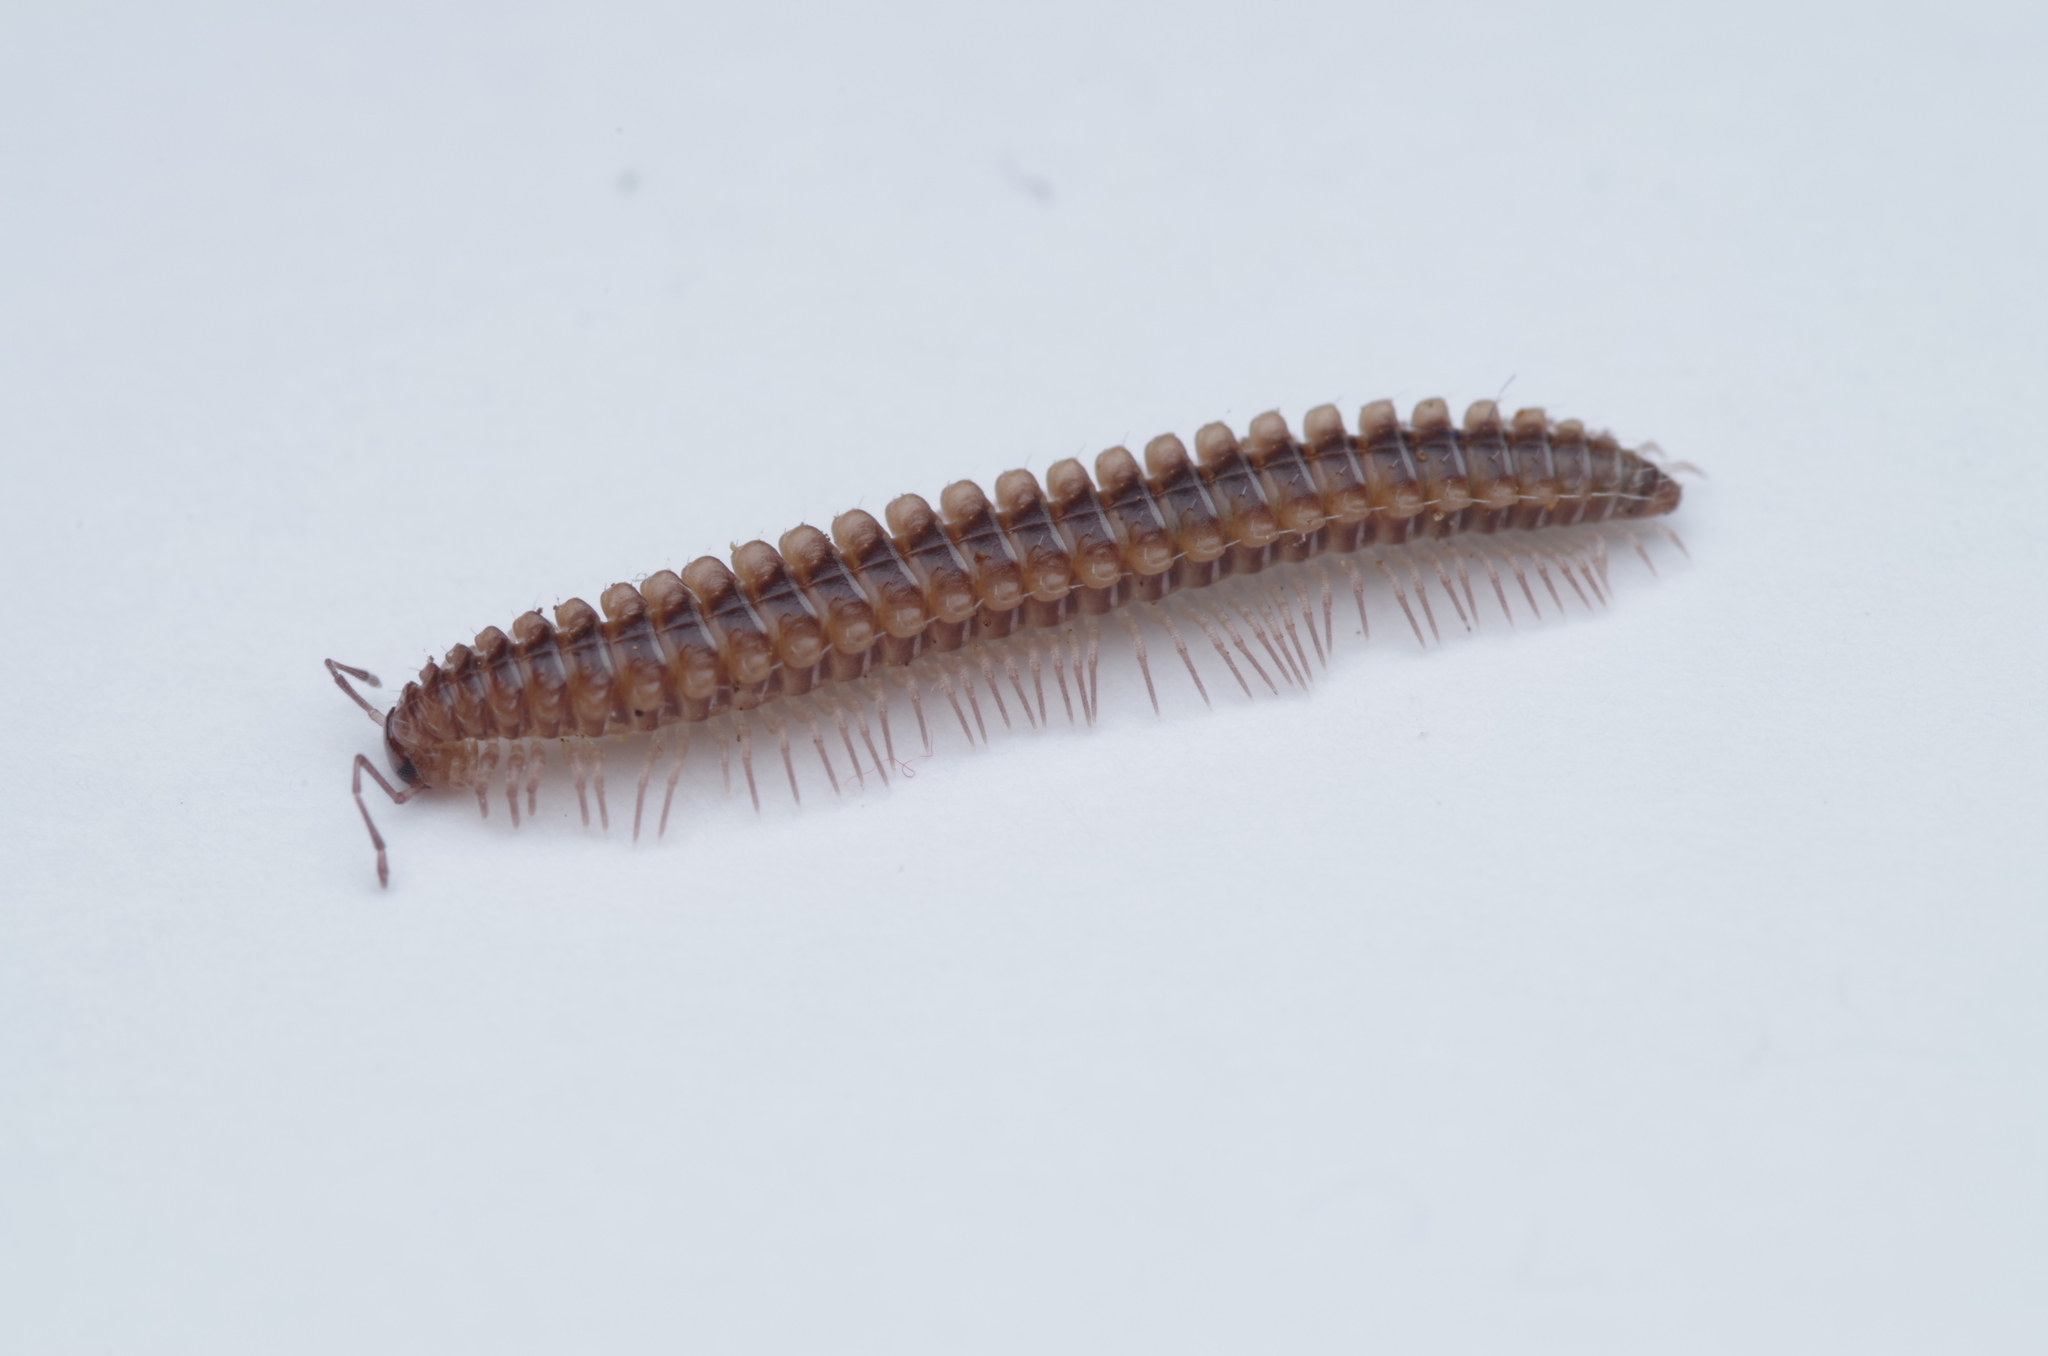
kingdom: Animalia
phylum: Arthropoda
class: Diplopoda
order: Chordeumatida
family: Craspedosomatidae
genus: Nanogona
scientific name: Nanogona polydesmoides
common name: Eyed flat-backed millipede
